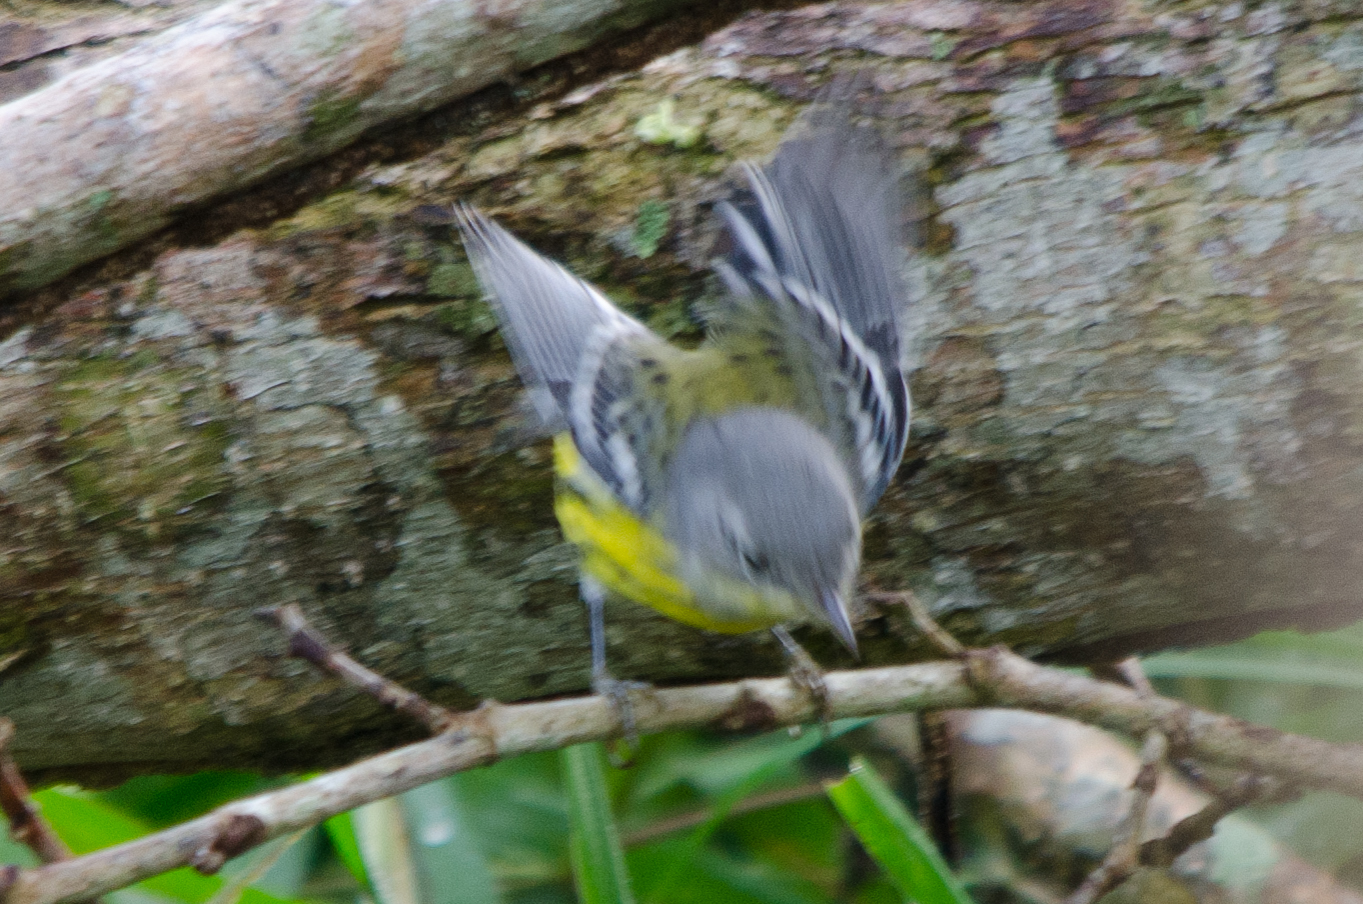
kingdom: Animalia
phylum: Chordata
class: Aves
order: Passeriformes
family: Parulidae
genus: Setophaga
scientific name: Setophaga magnolia
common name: Magnolia warbler
